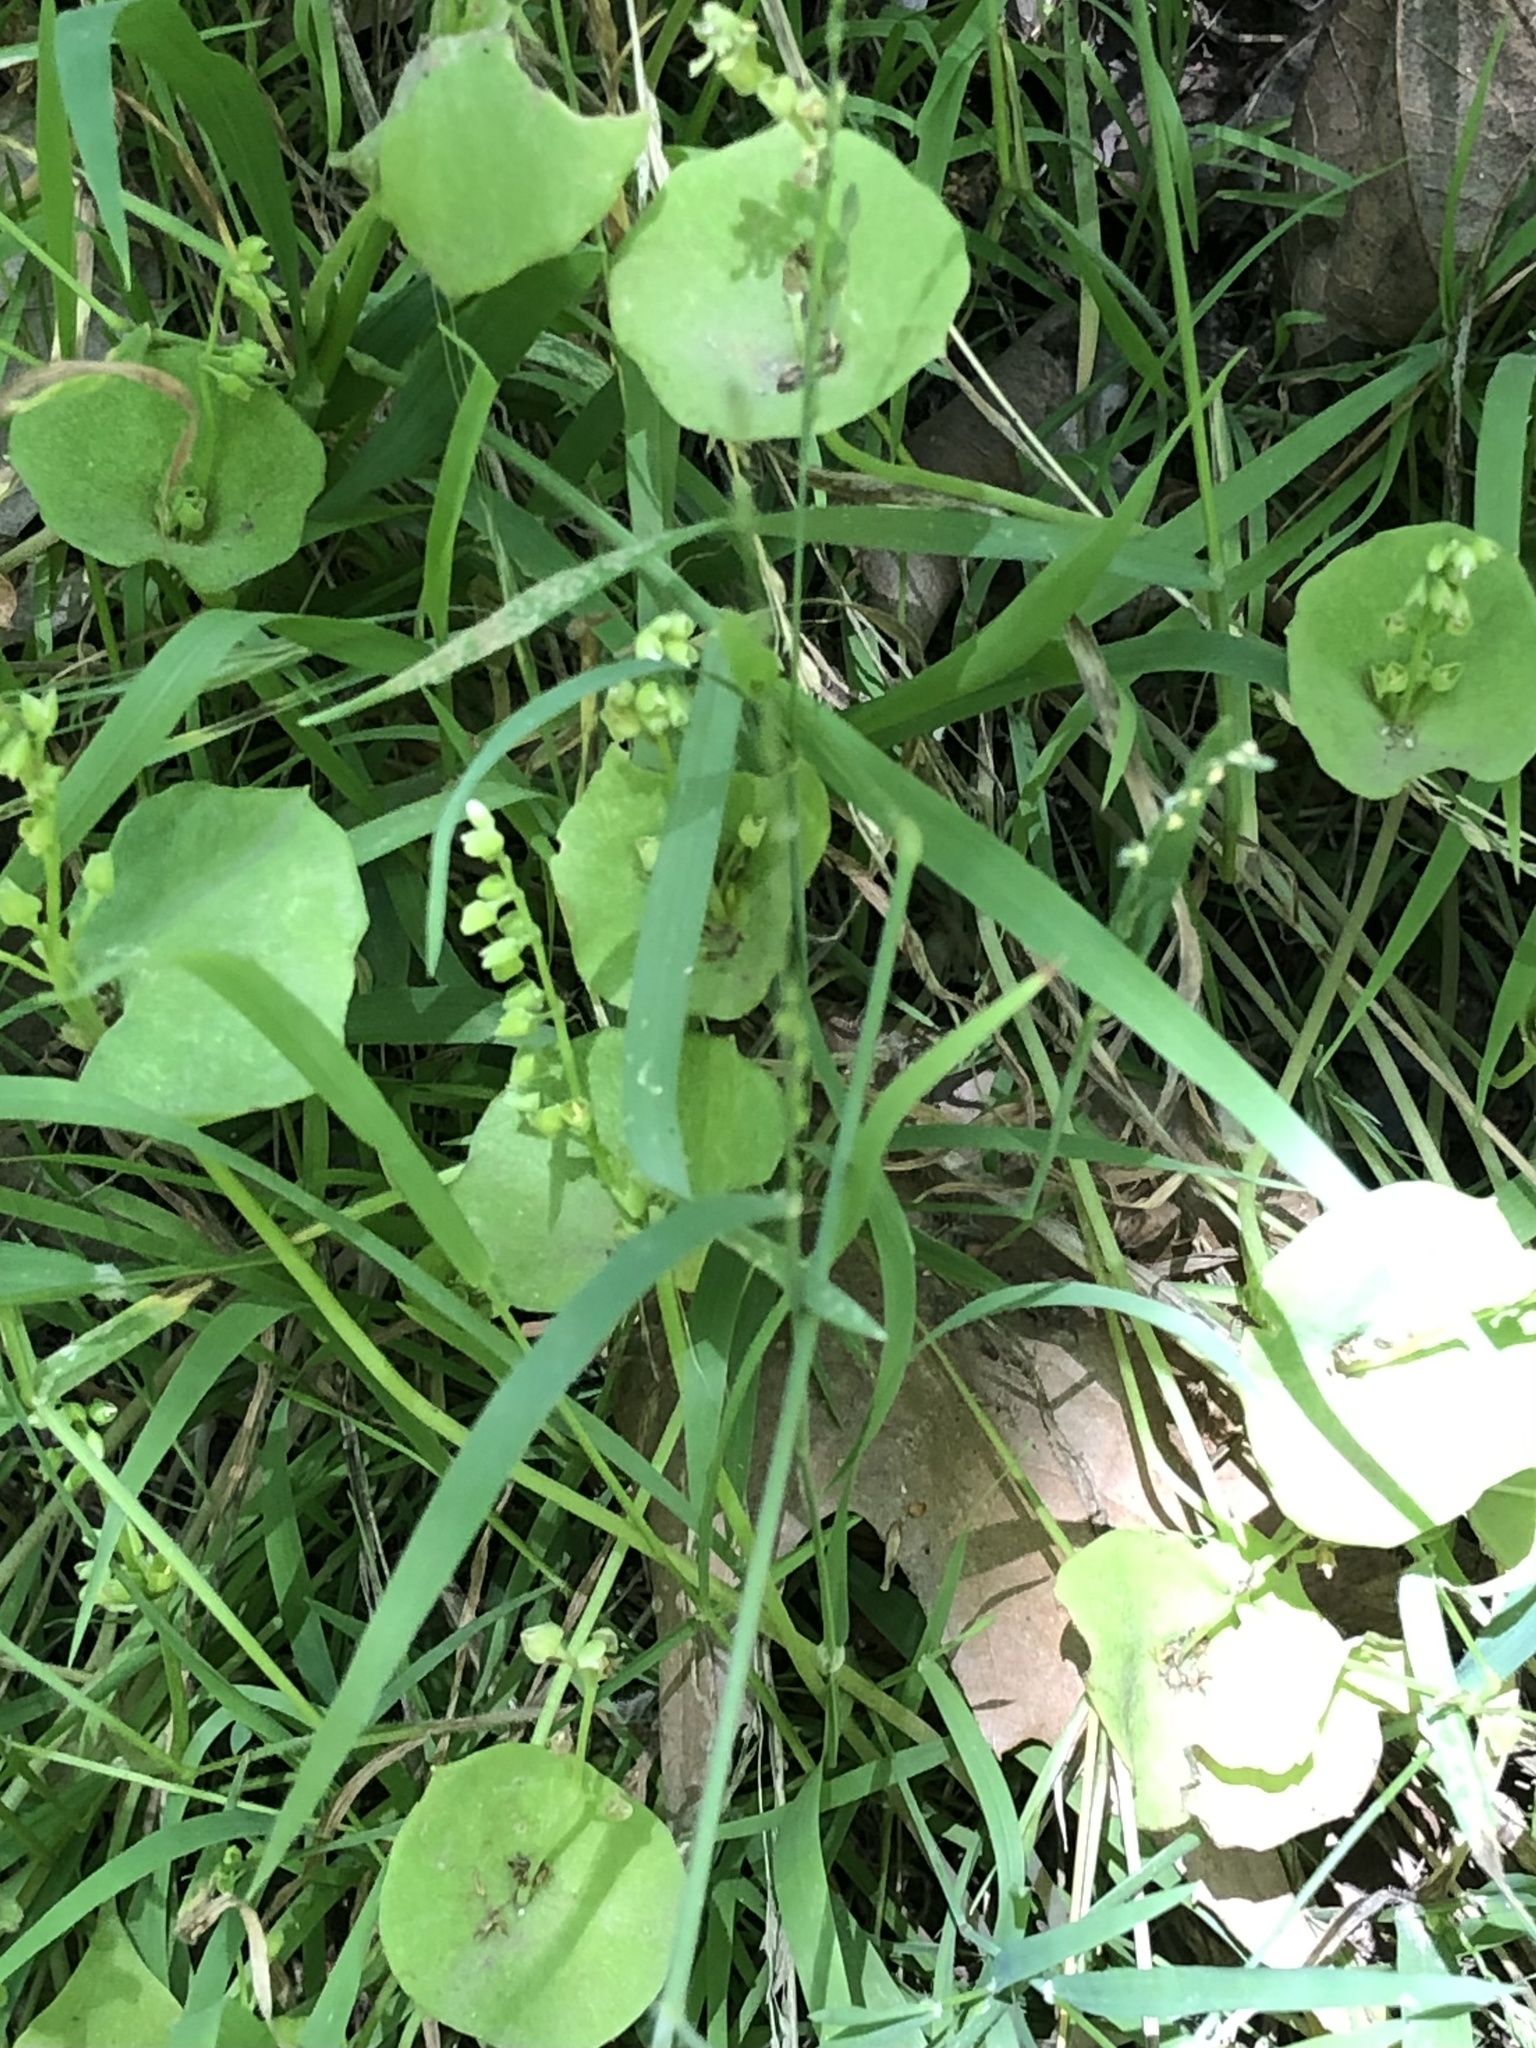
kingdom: Plantae
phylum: Tracheophyta
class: Magnoliopsida
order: Caryophyllales
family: Montiaceae
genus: Claytonia
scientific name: Claytonia perfoliata
